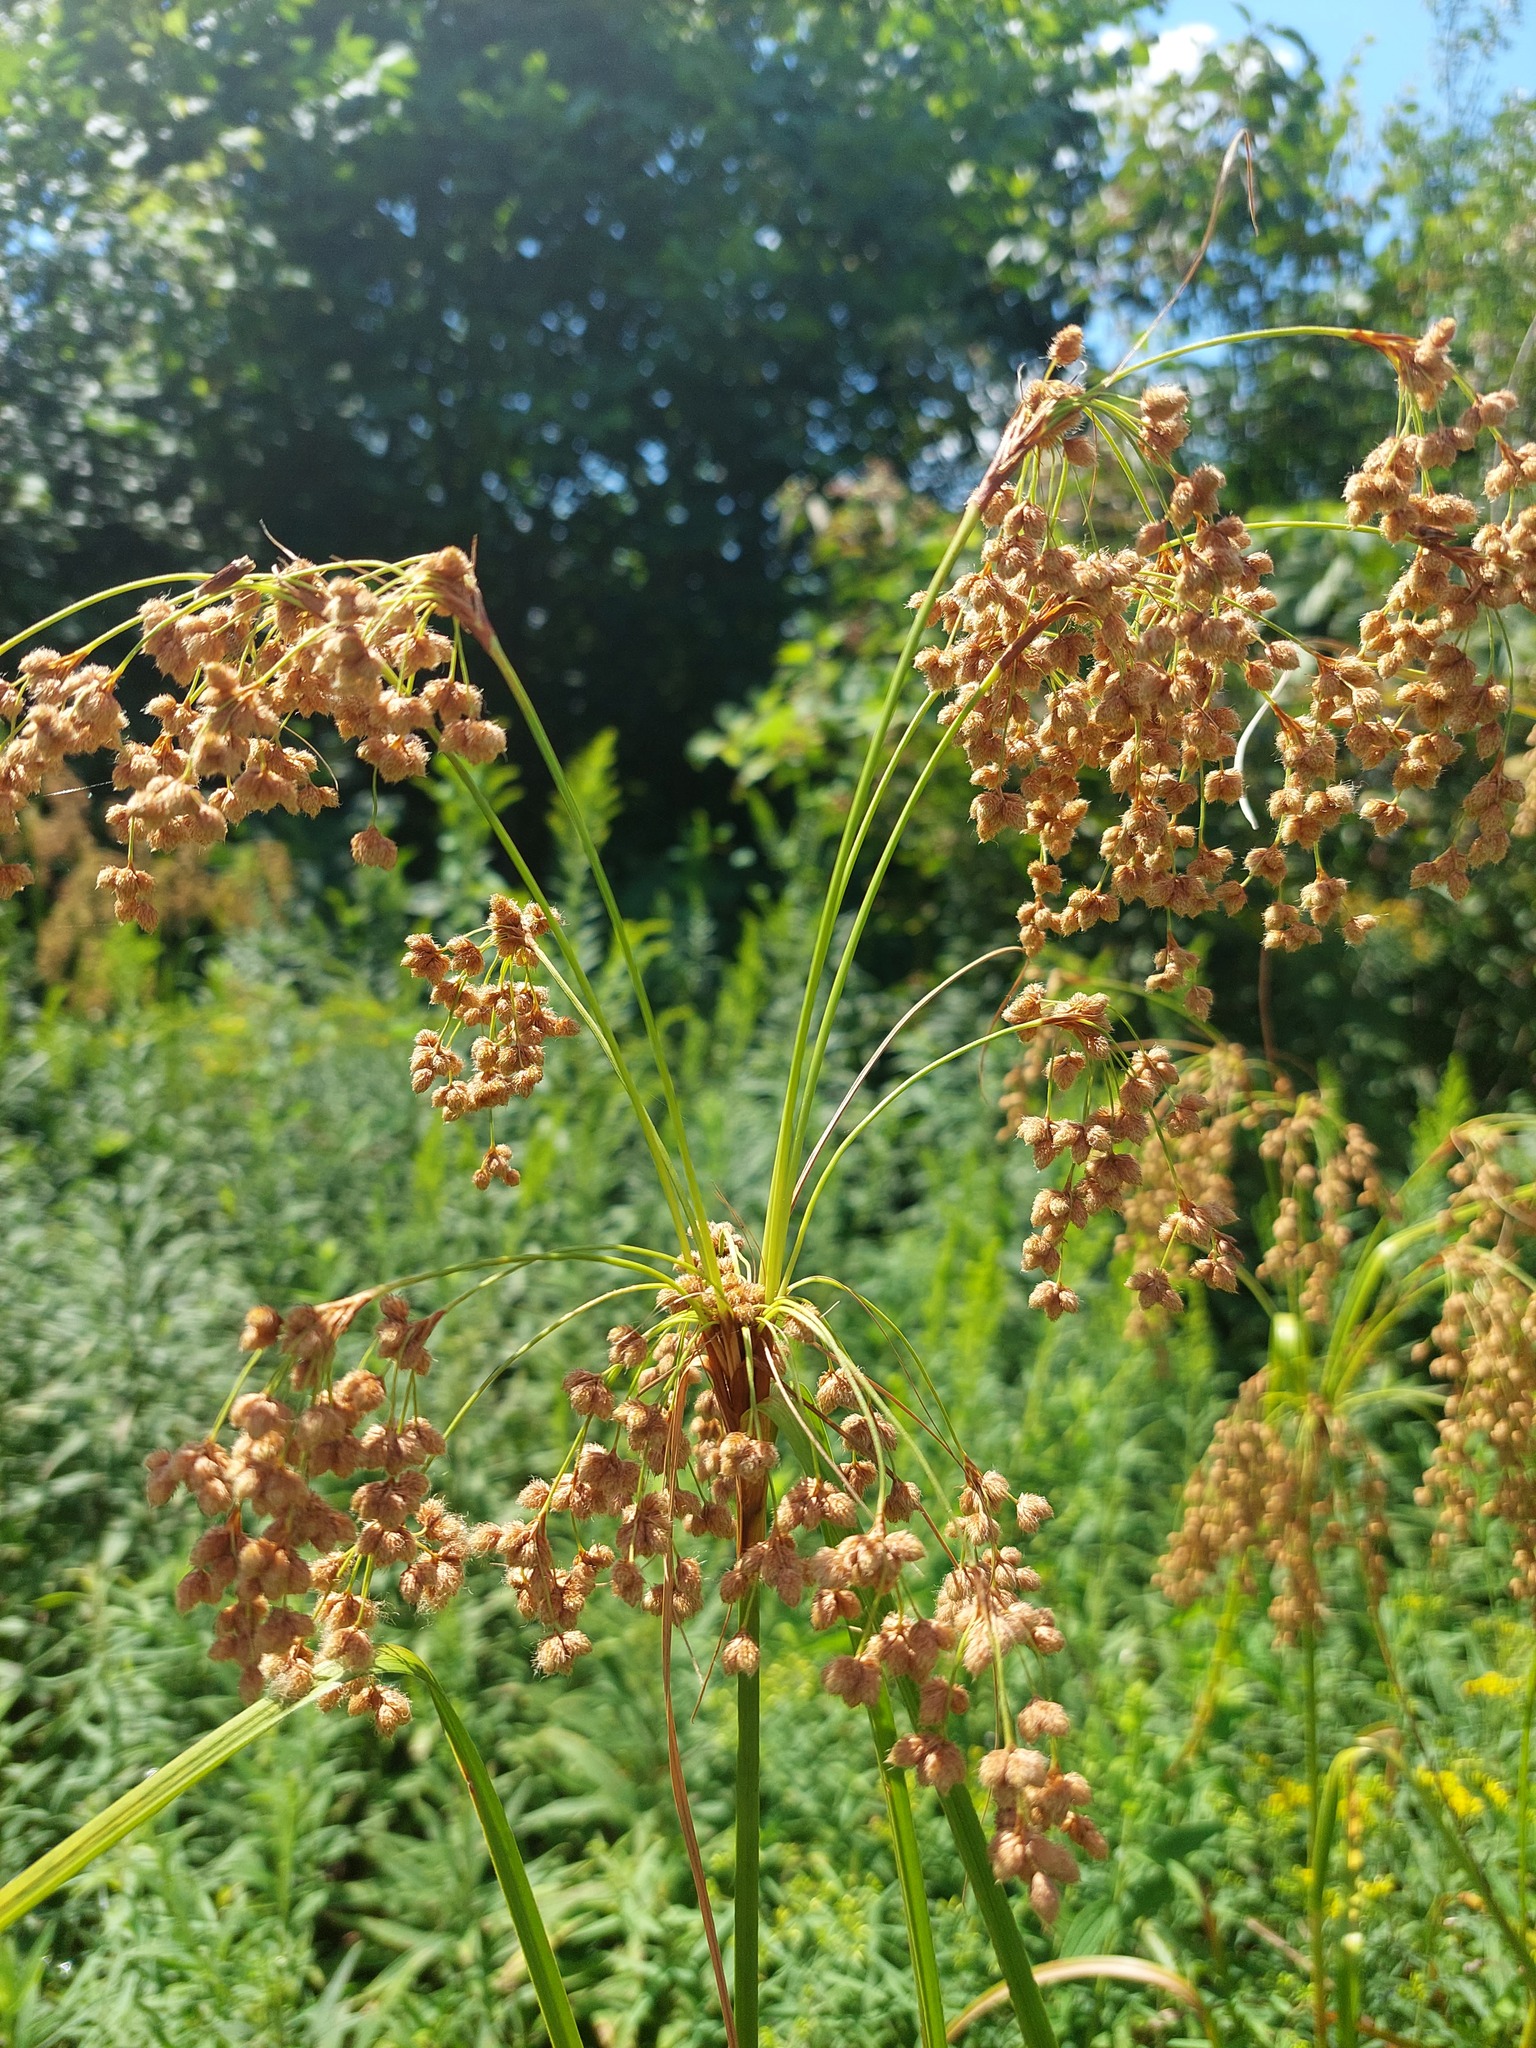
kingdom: Plantae
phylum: Tracheophyta
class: Liliopsida
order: Poales
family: Cyperaceae
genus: Scirpus
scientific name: Scirpus cyperinus
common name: Black-sheathed bulrush
